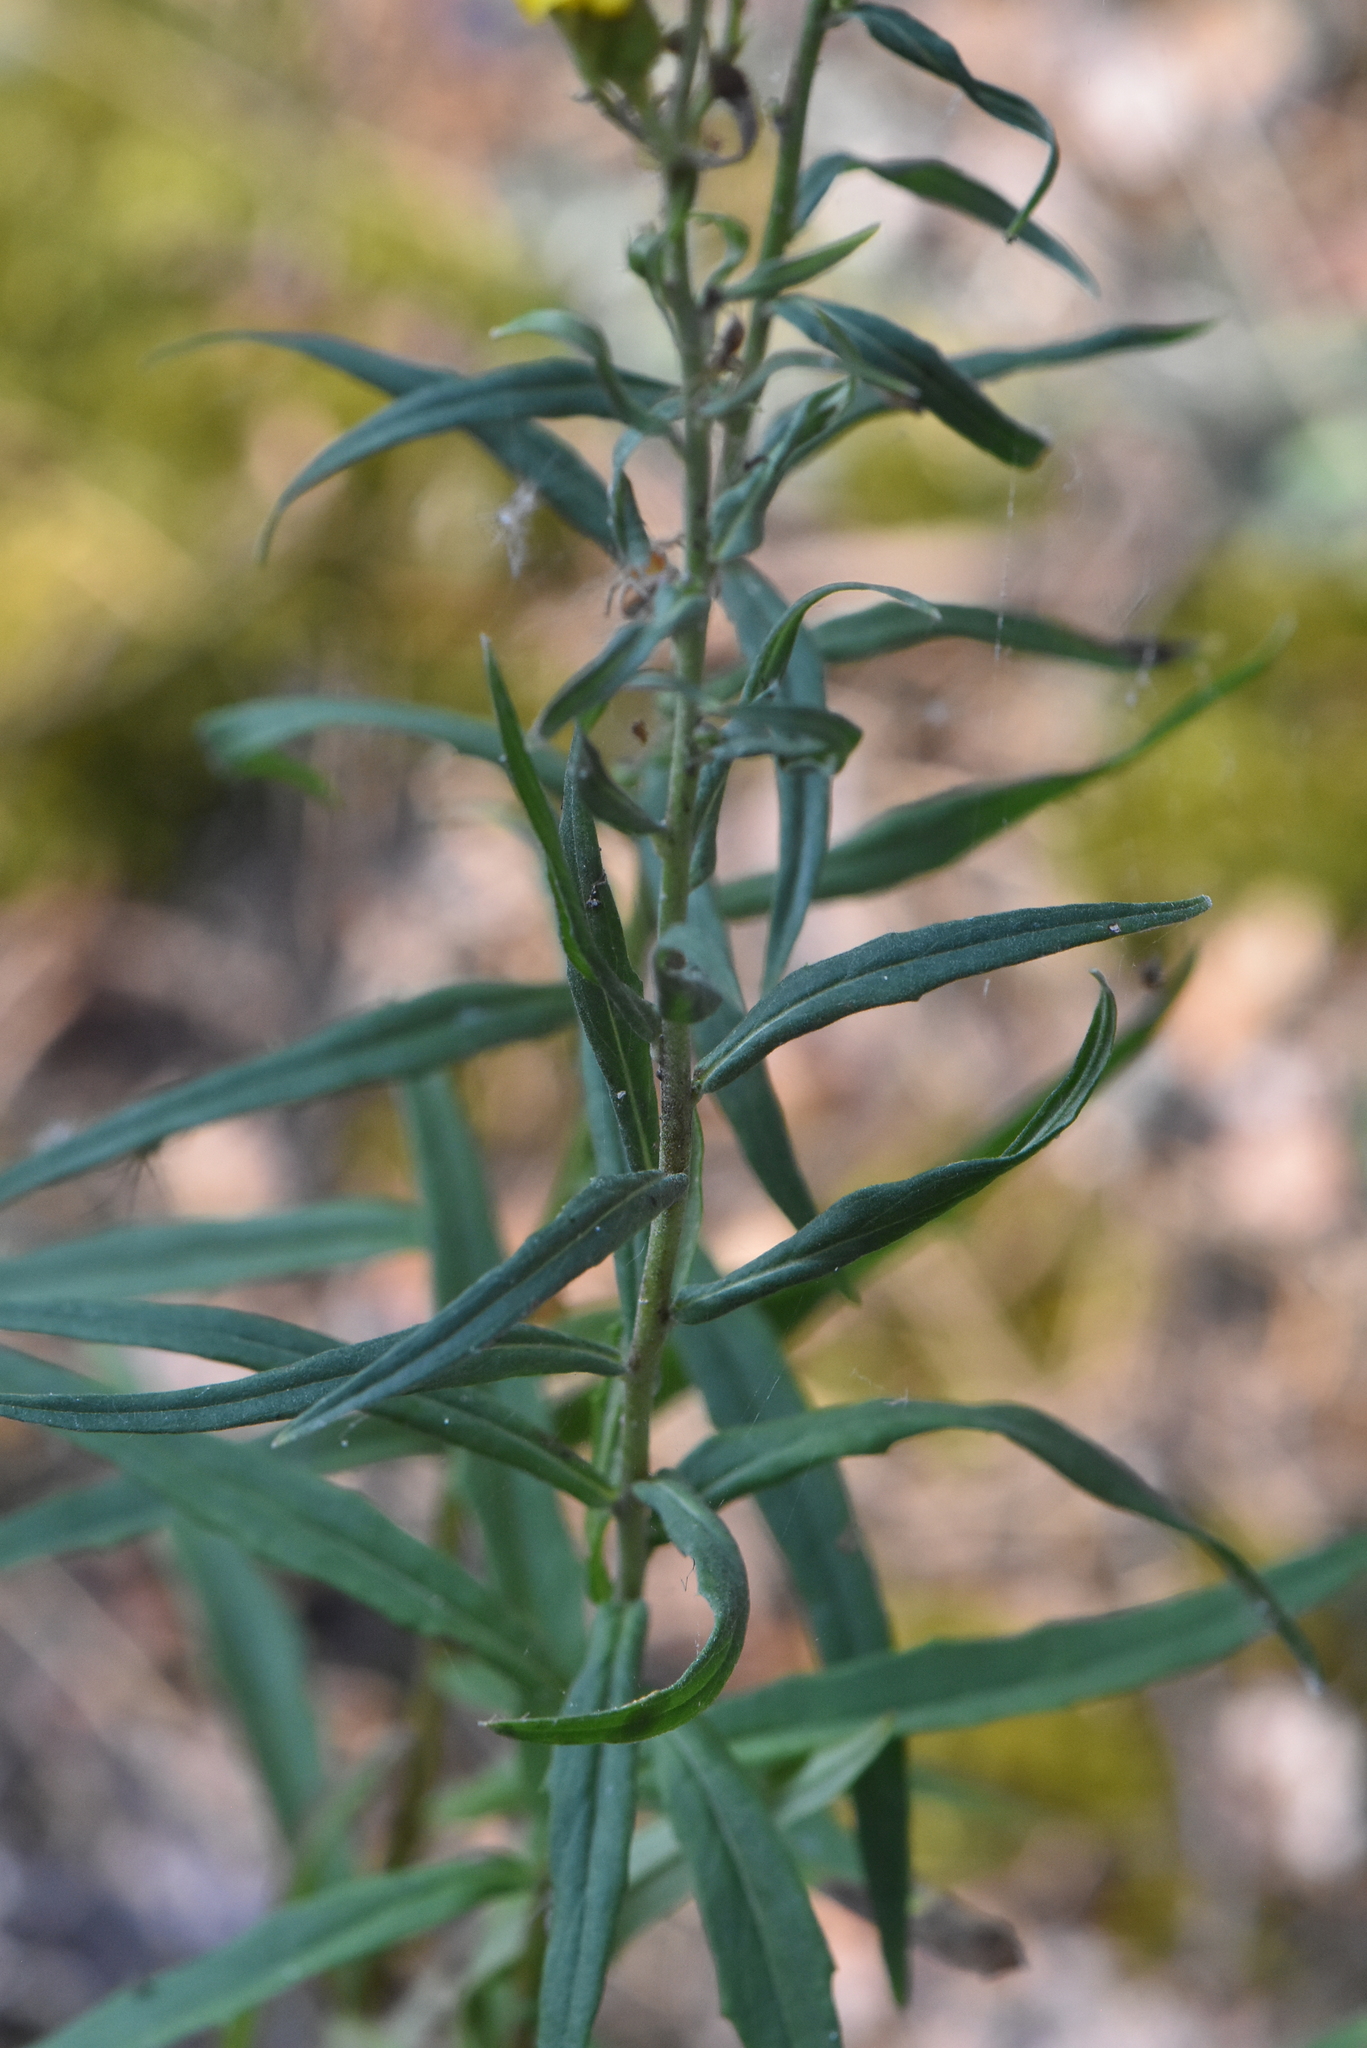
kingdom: Plantae
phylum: Tracheophyta
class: Magnoliopsida
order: Asterales
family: Asteraceae
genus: Hieracium
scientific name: Hieracium umbellatum
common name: Northern hawkweed
